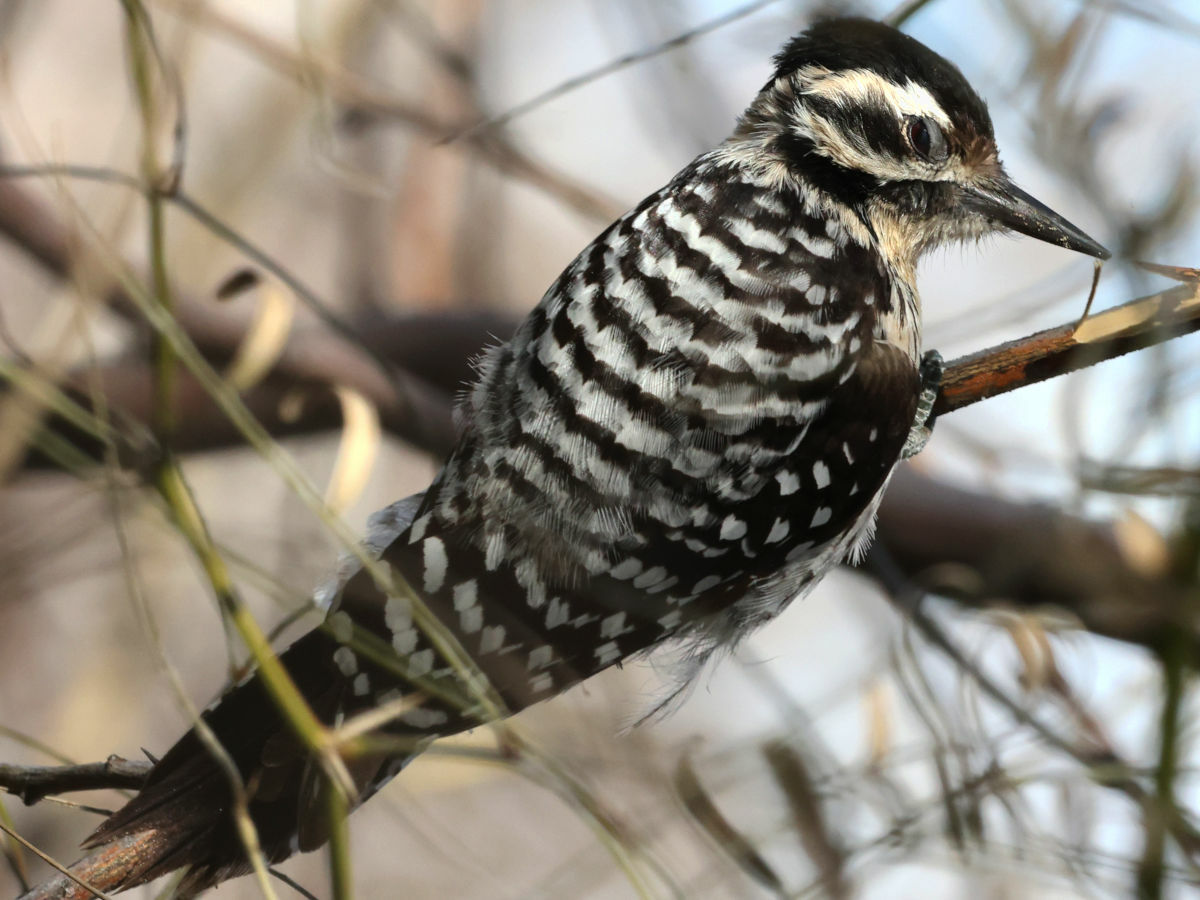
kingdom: Animalia
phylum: Chordata
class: Aves
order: Piciformes
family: Picidae
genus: Dryobates
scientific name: Dryobates scalaris
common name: Ladder-backed woodpecker
